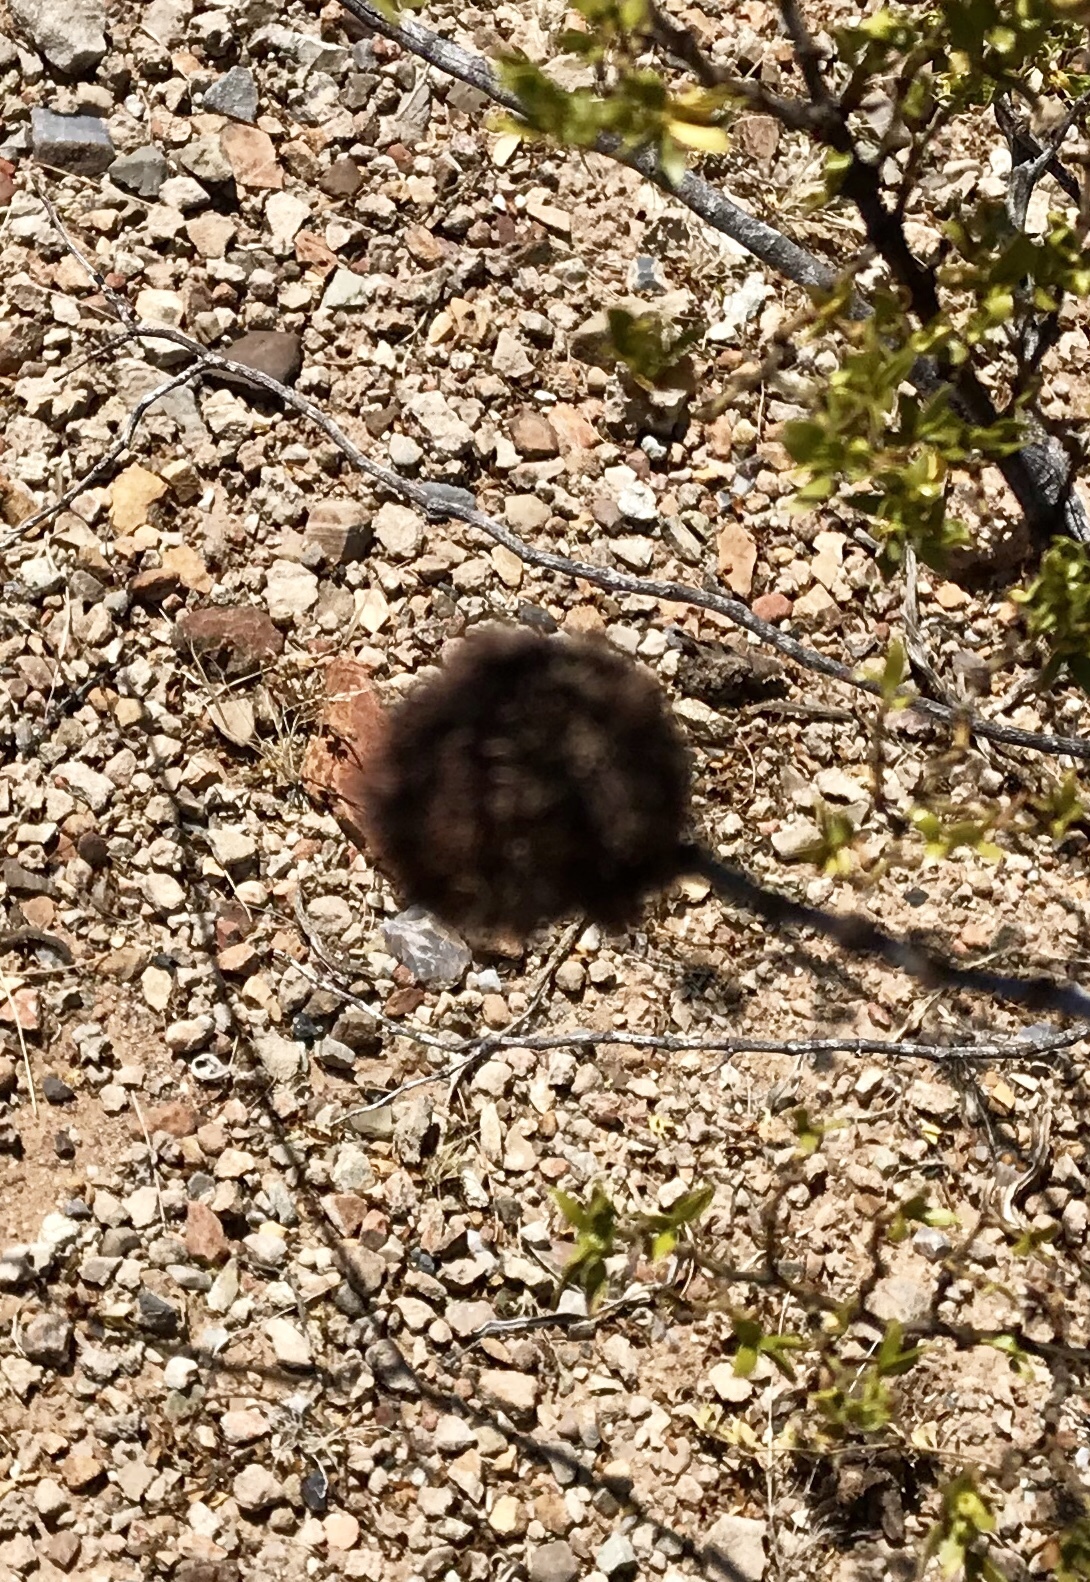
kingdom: Animalia
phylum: Arthropoda
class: Insecta
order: Diptera
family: Cecidomyiidae
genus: Asphondylia
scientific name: Asphondylia auripila
